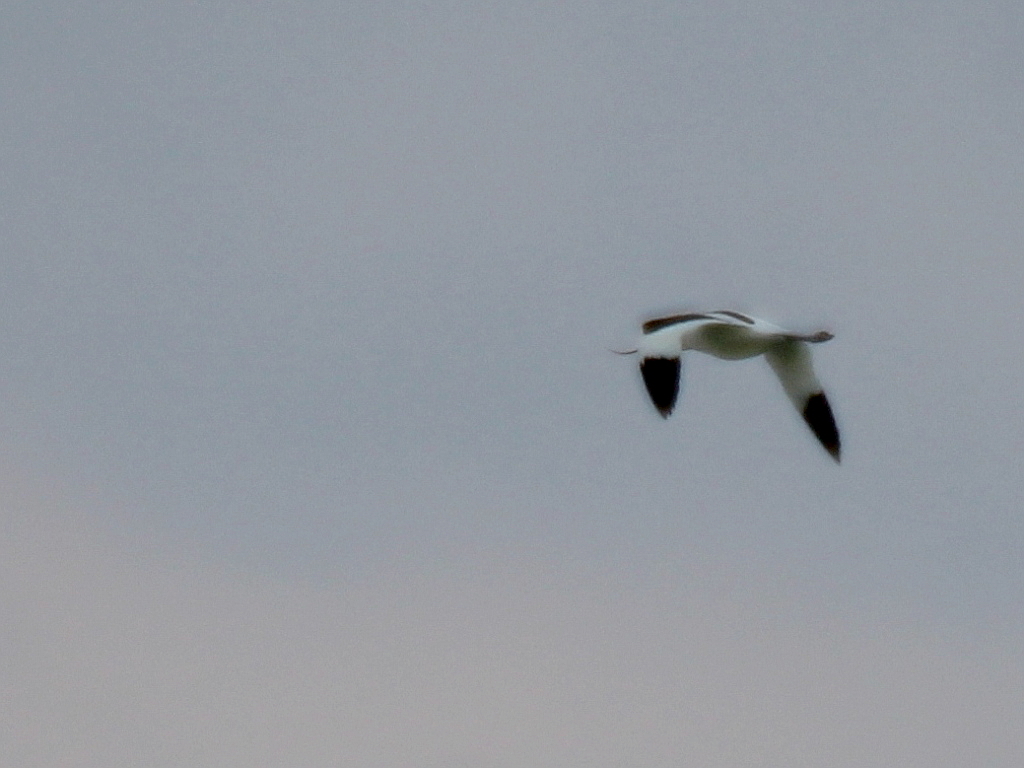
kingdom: Animalia
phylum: Chordata
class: Aves
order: Charadriiformes
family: Recurvirostridae
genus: Recurvirostra
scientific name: Recurvirostra avosetta
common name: Pied avocet
